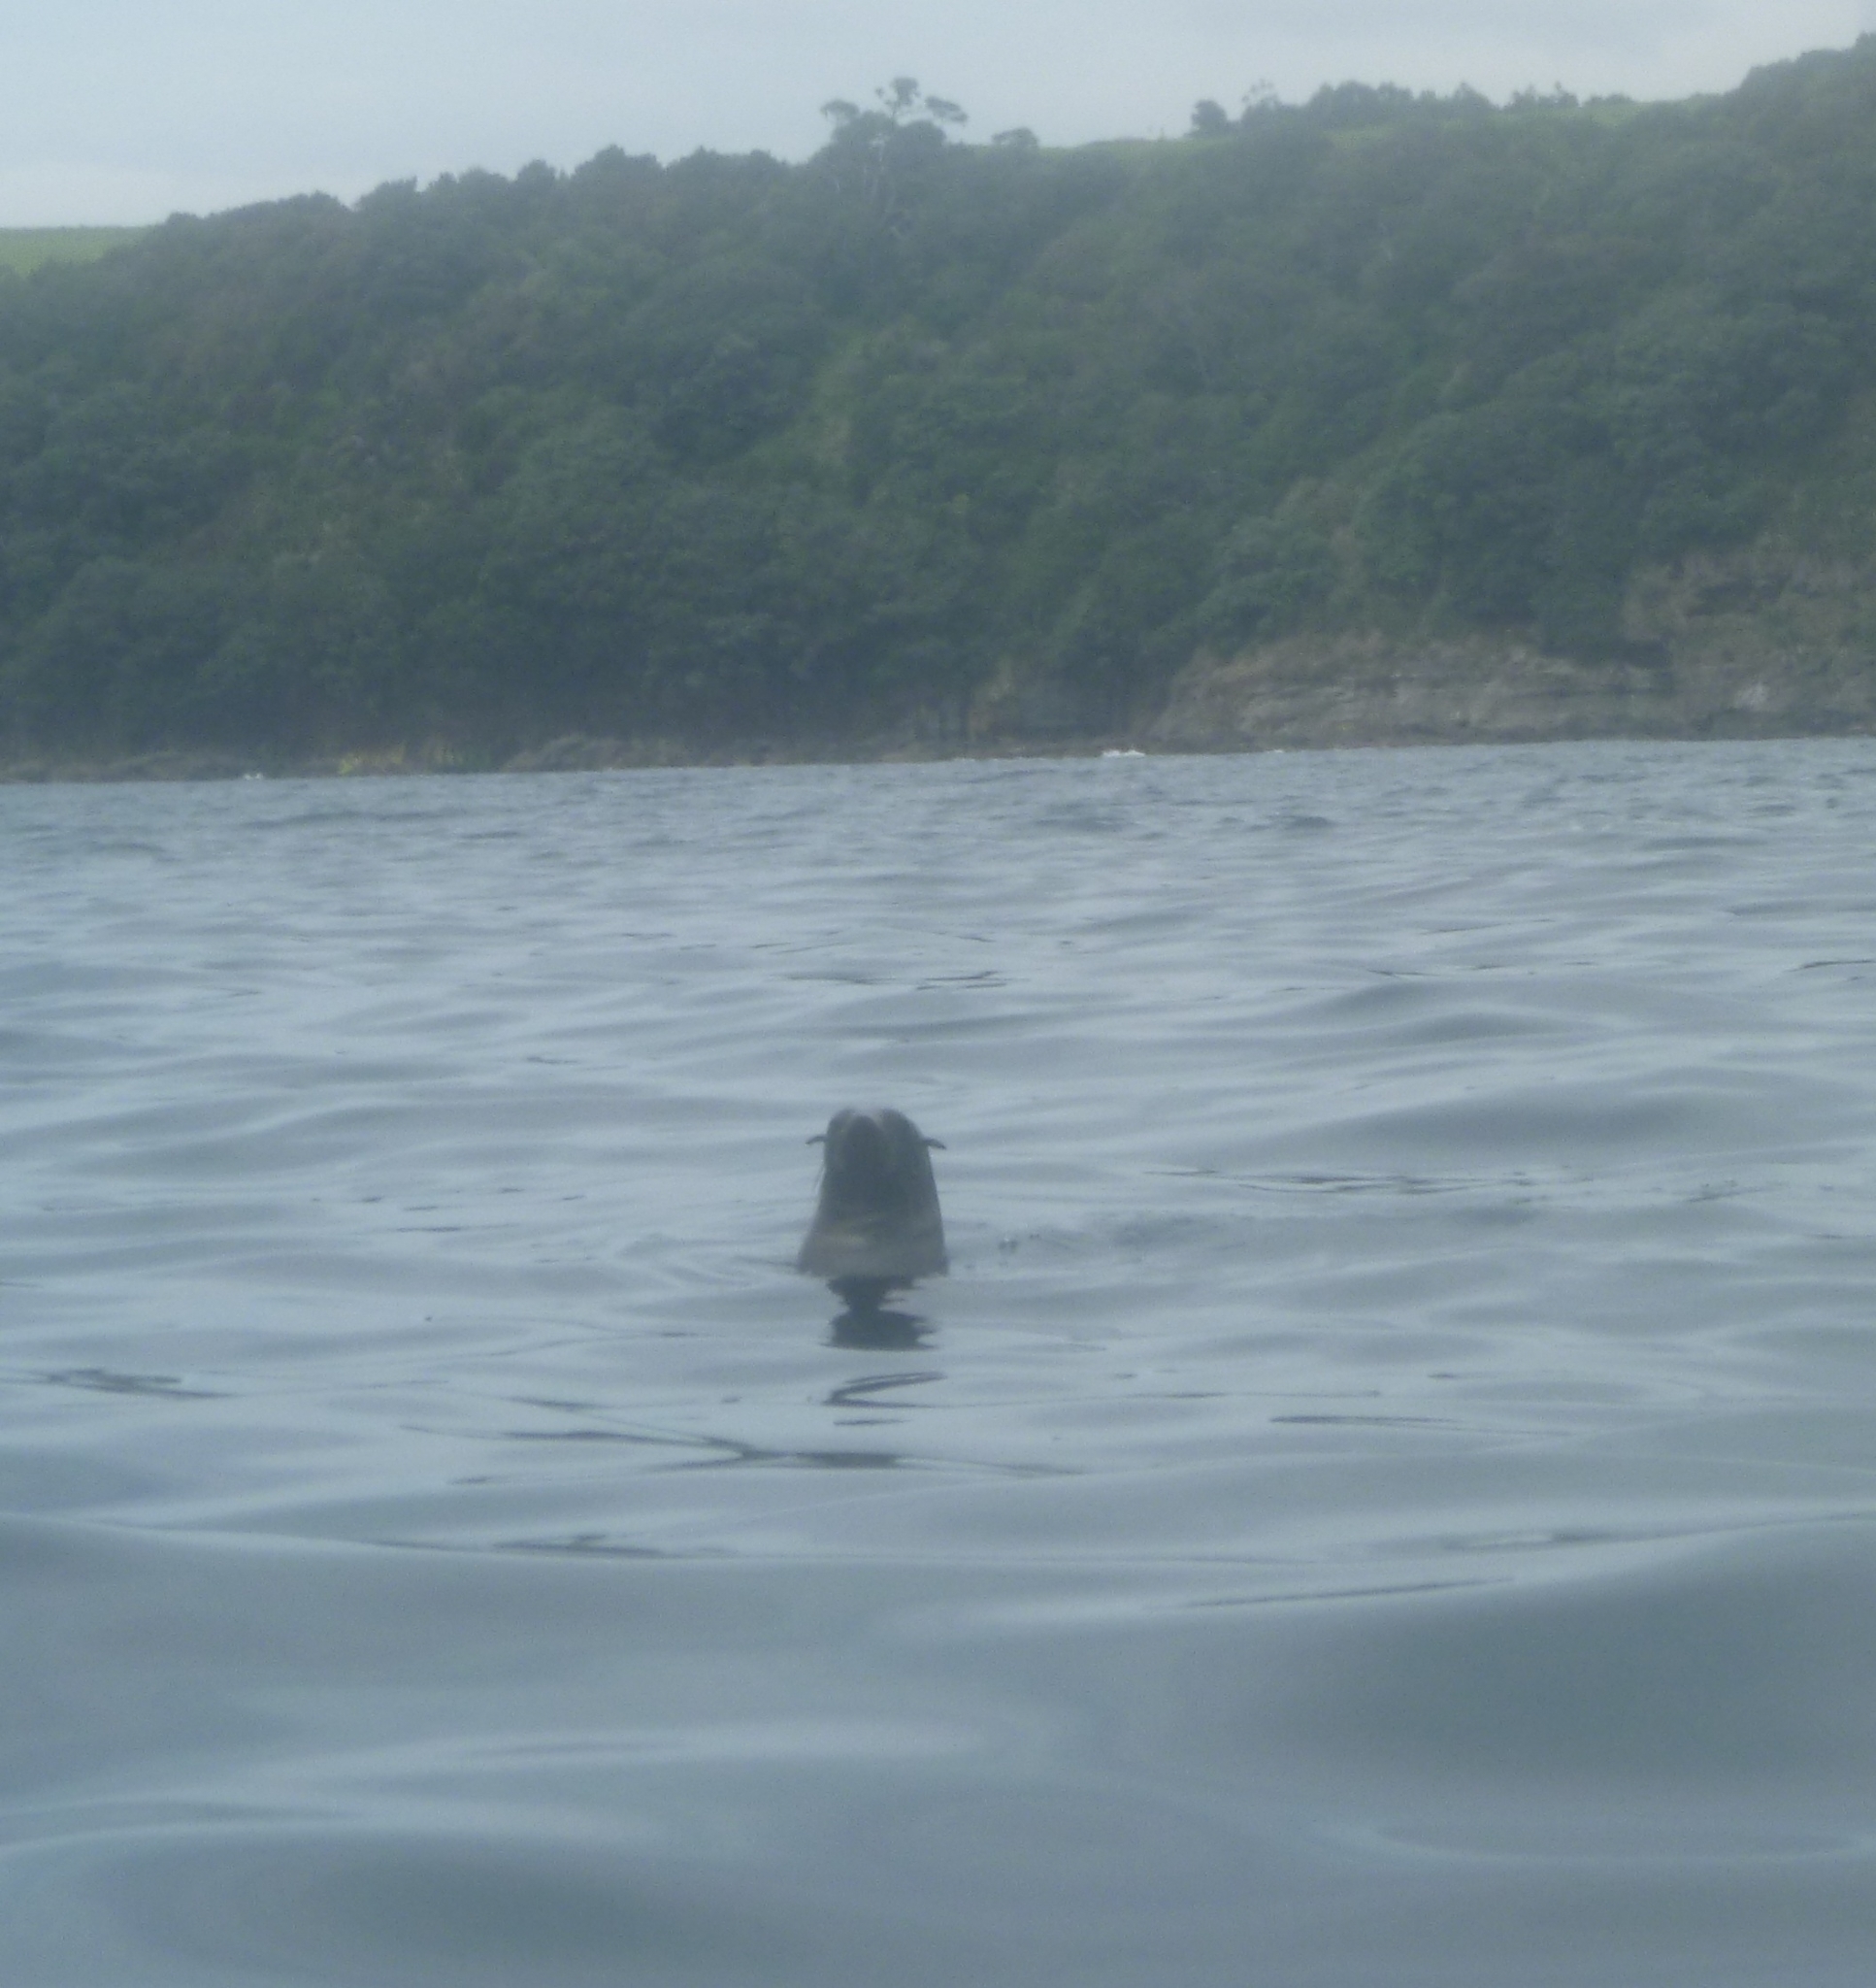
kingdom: Animalia
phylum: Chordata
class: Mammalia
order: Carnivora
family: Otariidae
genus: Arctocephalus
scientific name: Arctocephalus forsteri
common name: New zealand fur seal
